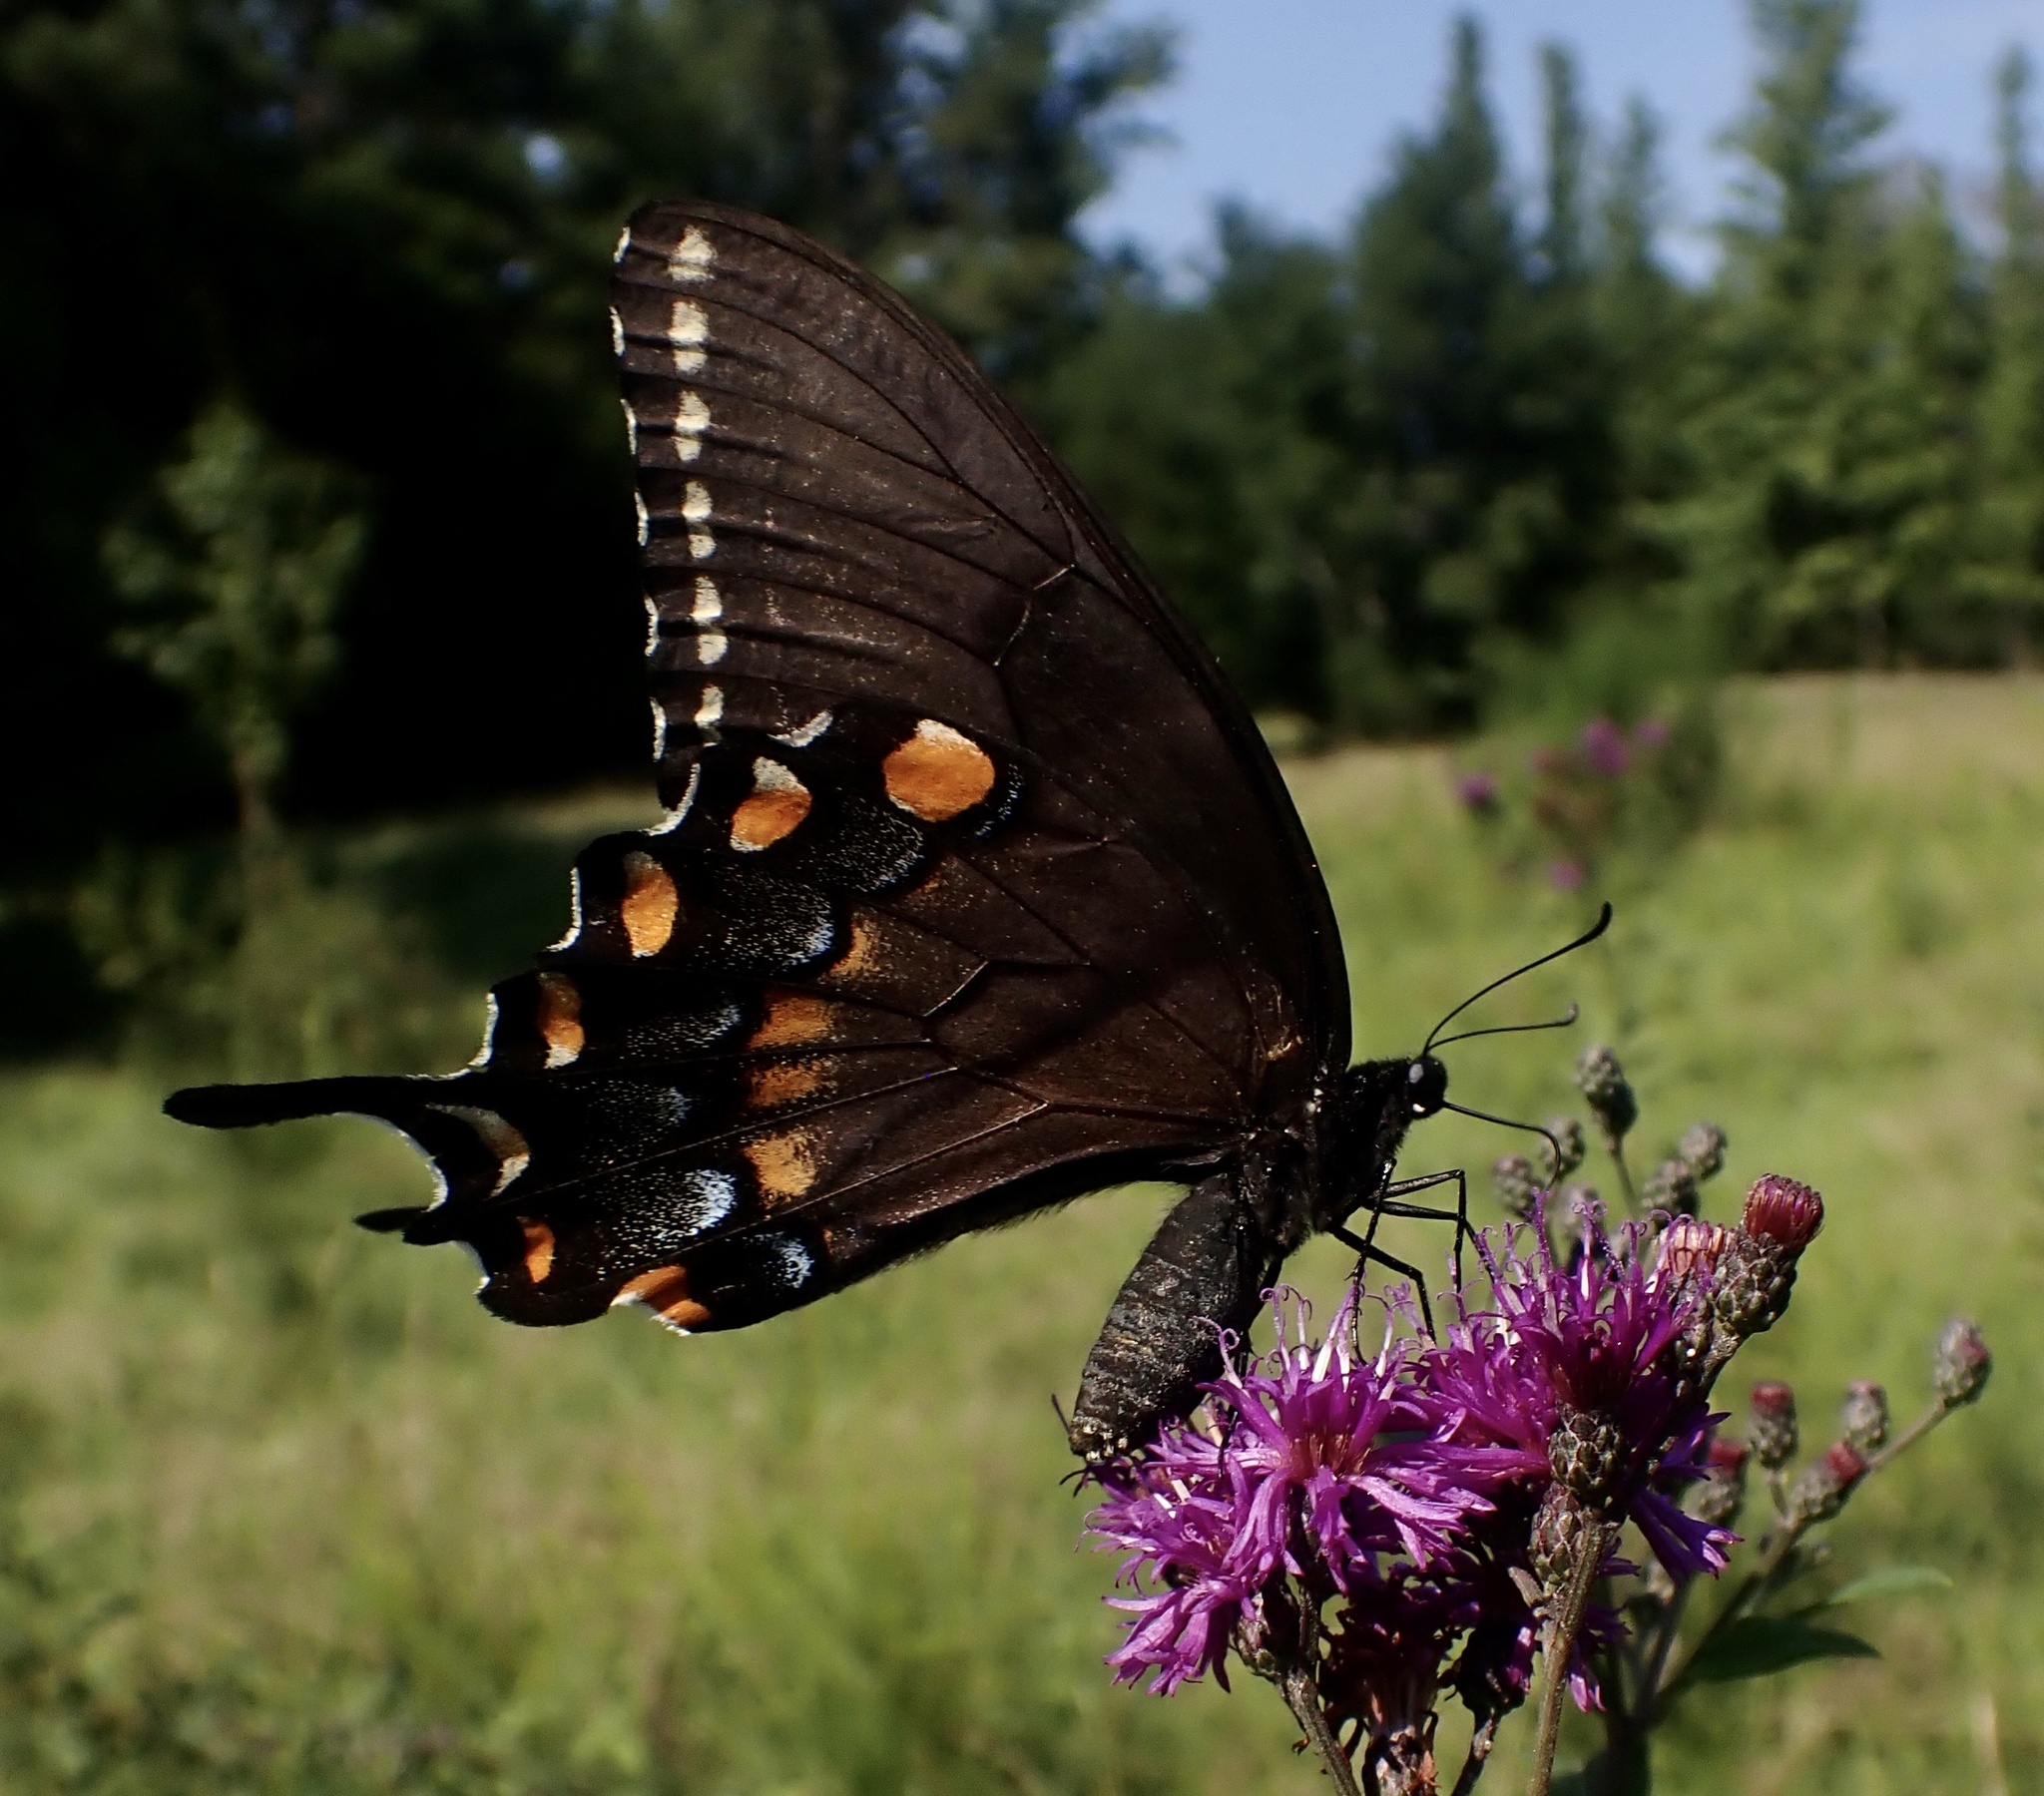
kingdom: Animalia
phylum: Arthropoda
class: Insecta
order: Lepidoptera
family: Papilionidae
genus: Papilio
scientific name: Papilio glaucus
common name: Tiger swallowtail
